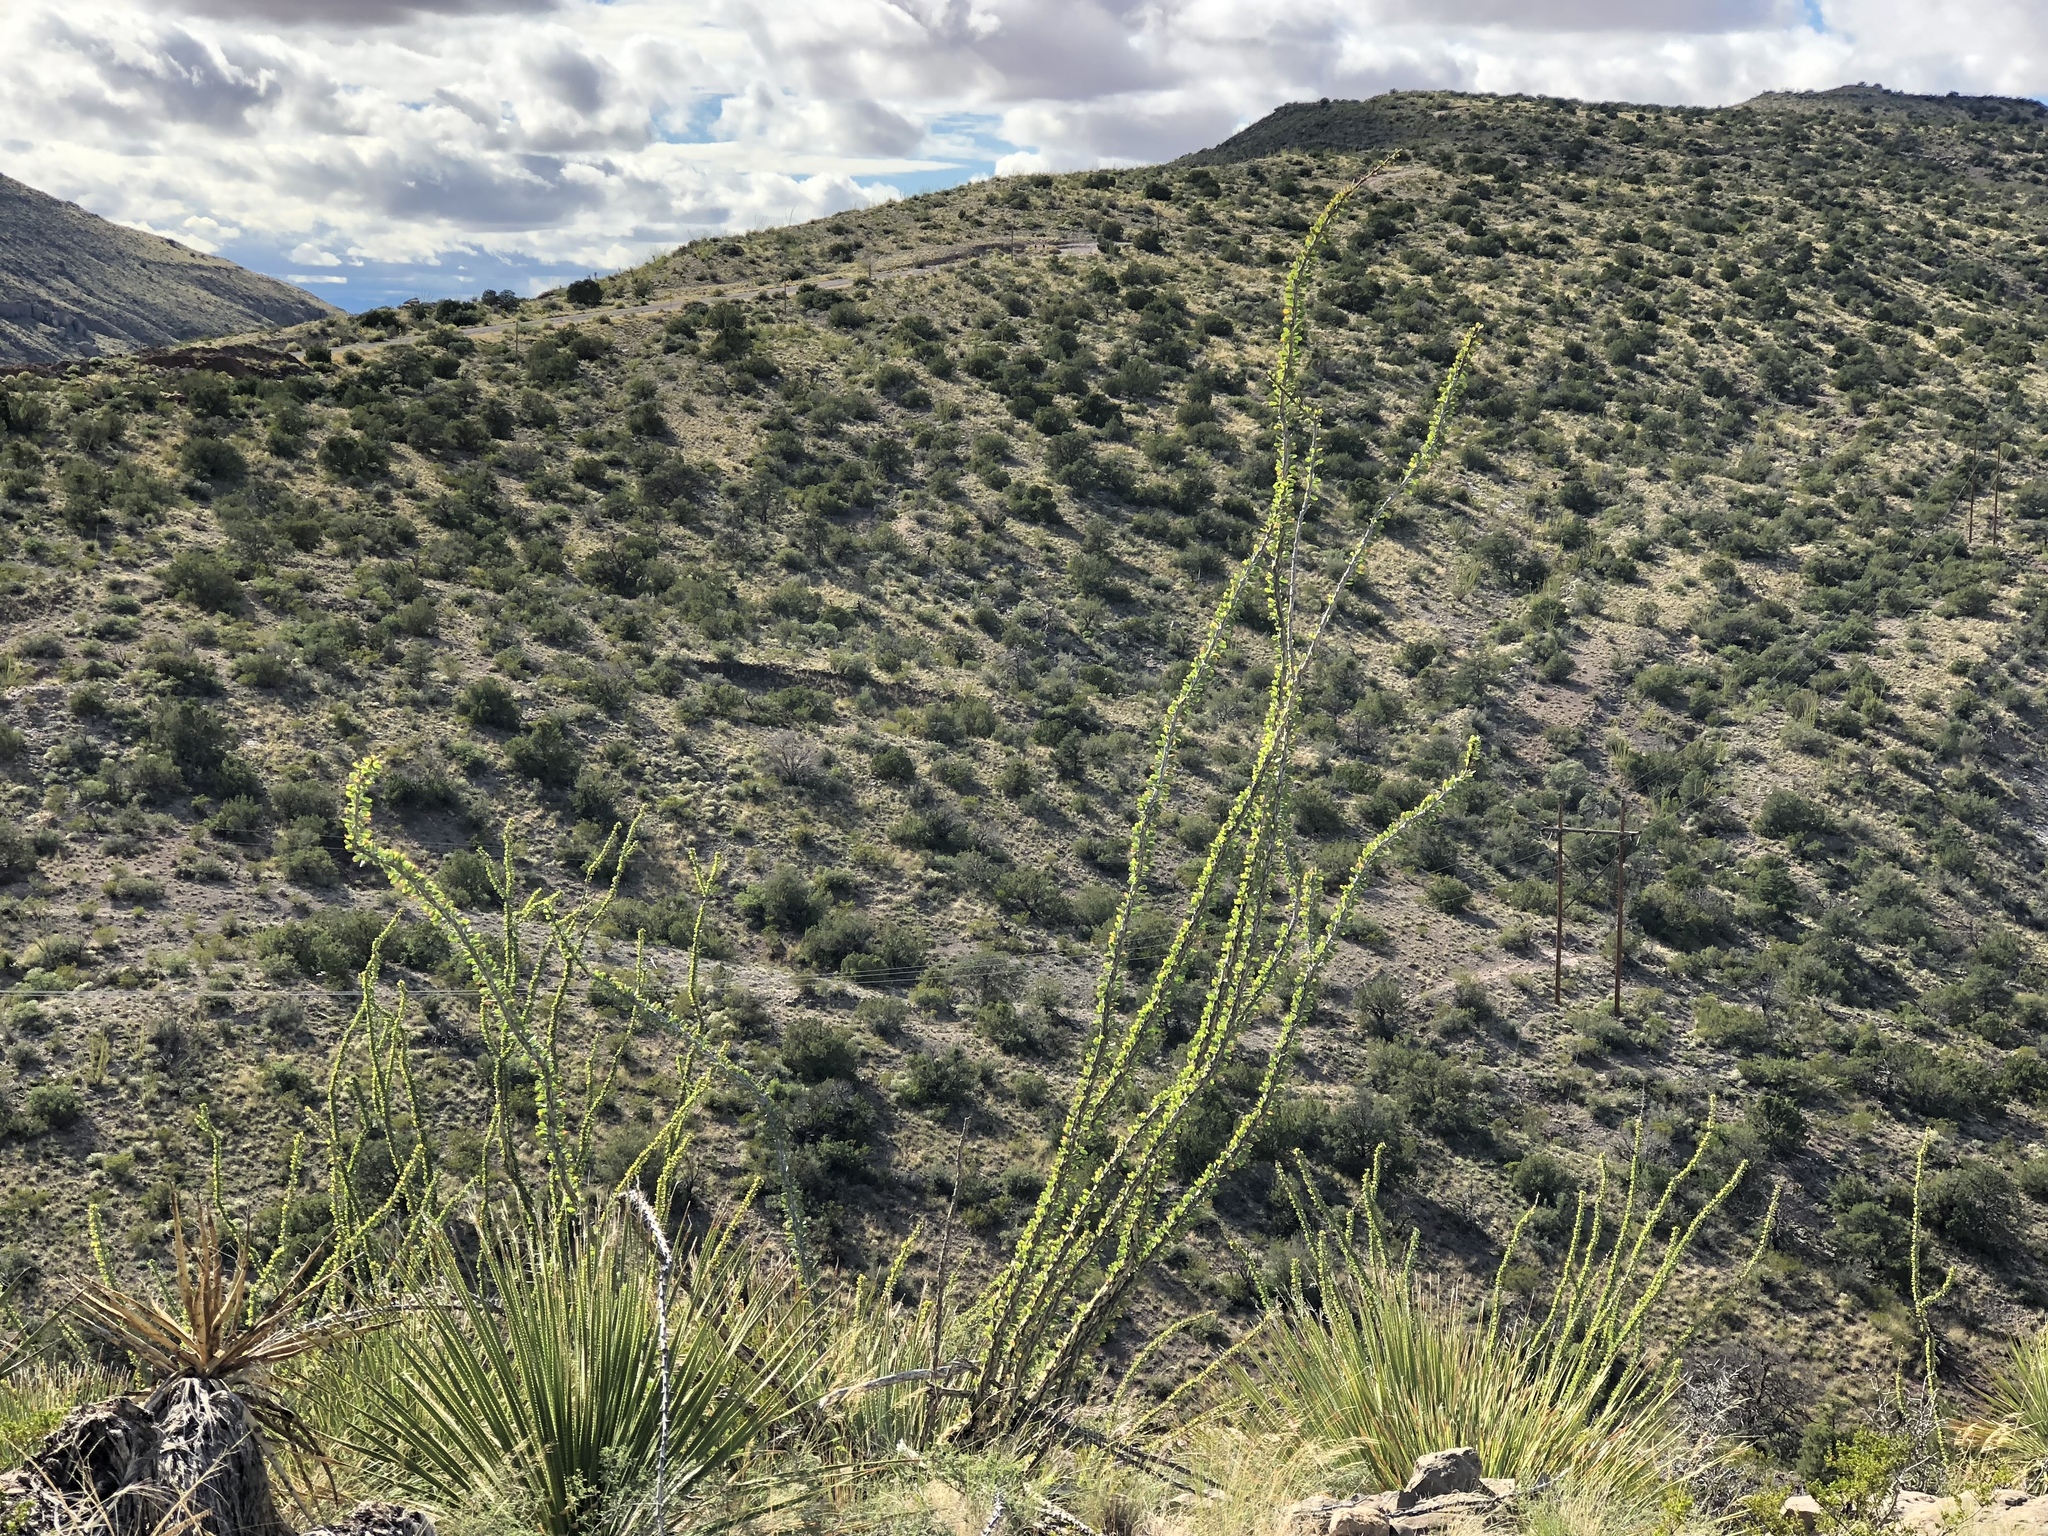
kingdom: Plantae
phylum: Tracheophyta
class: Magnoliopsida
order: Ericales
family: Fouquieriaceae
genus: Fouquieria
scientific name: Fouquieria splendens
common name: Vine-cactus
